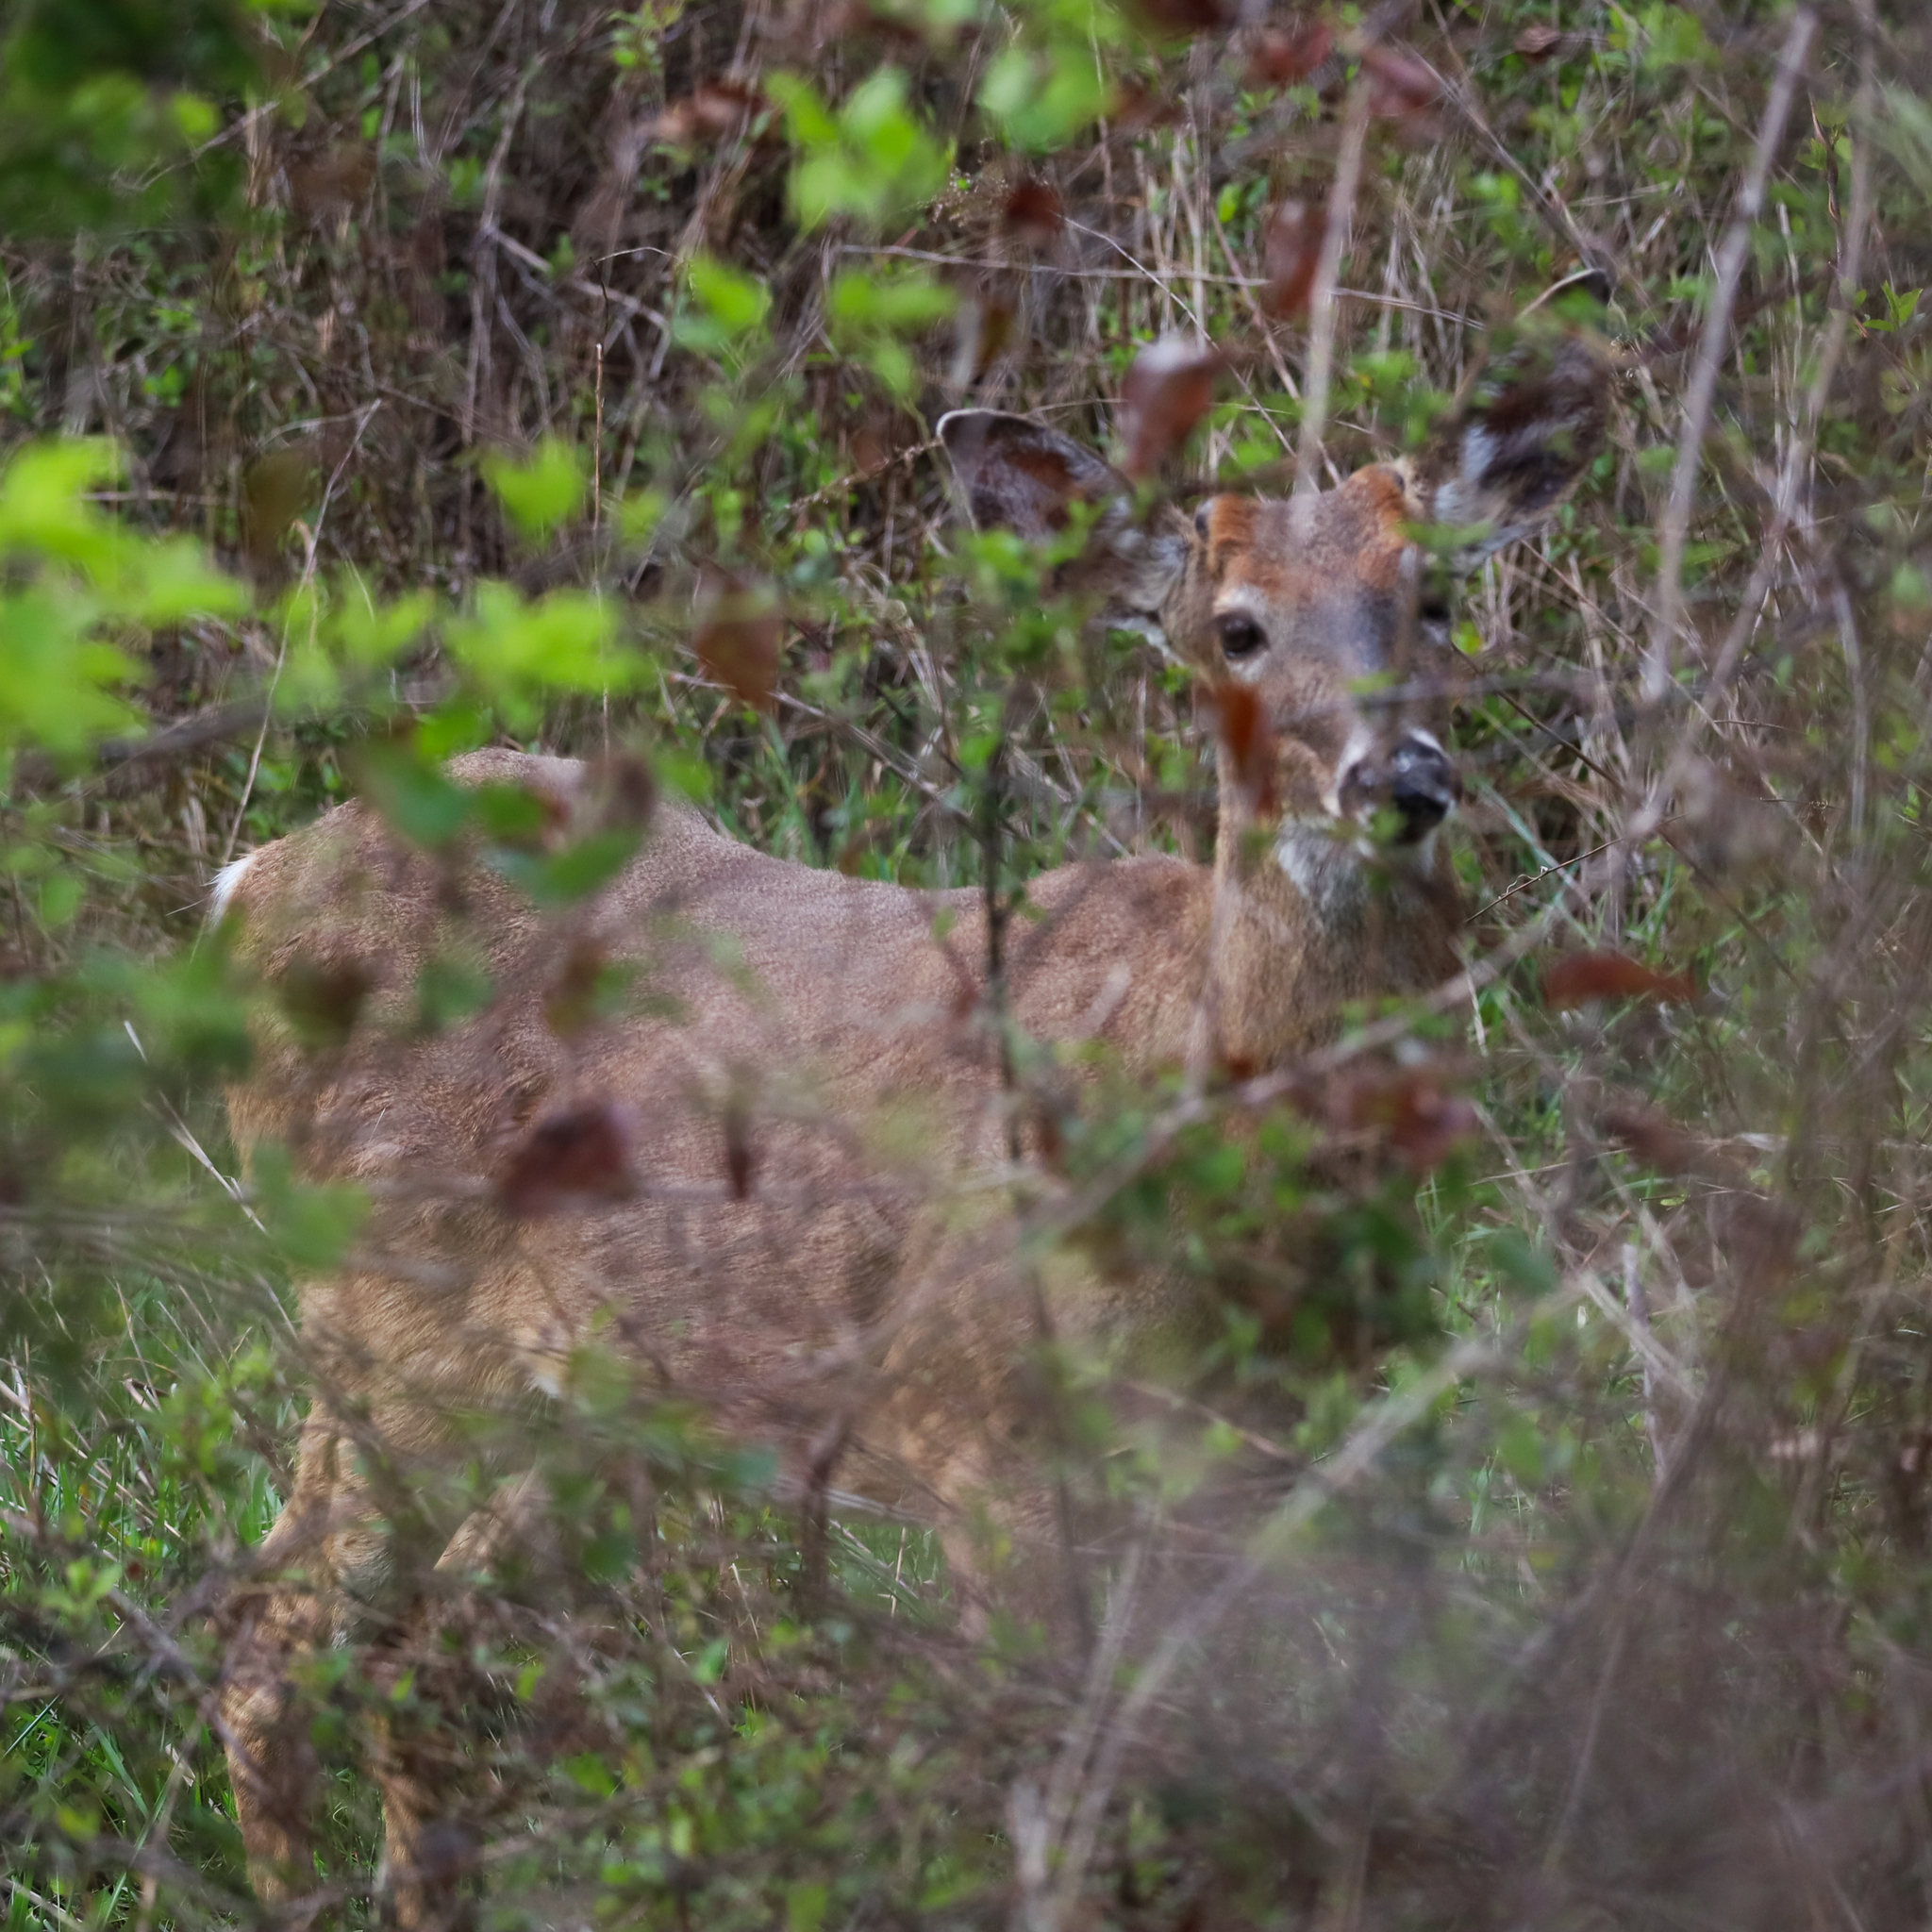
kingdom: Animalia
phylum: Chordata
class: Mammalia
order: Artiodactyla
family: Cervidae
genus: Odocoileus
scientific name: Odocoileus virginianus
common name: White-tailed deer
